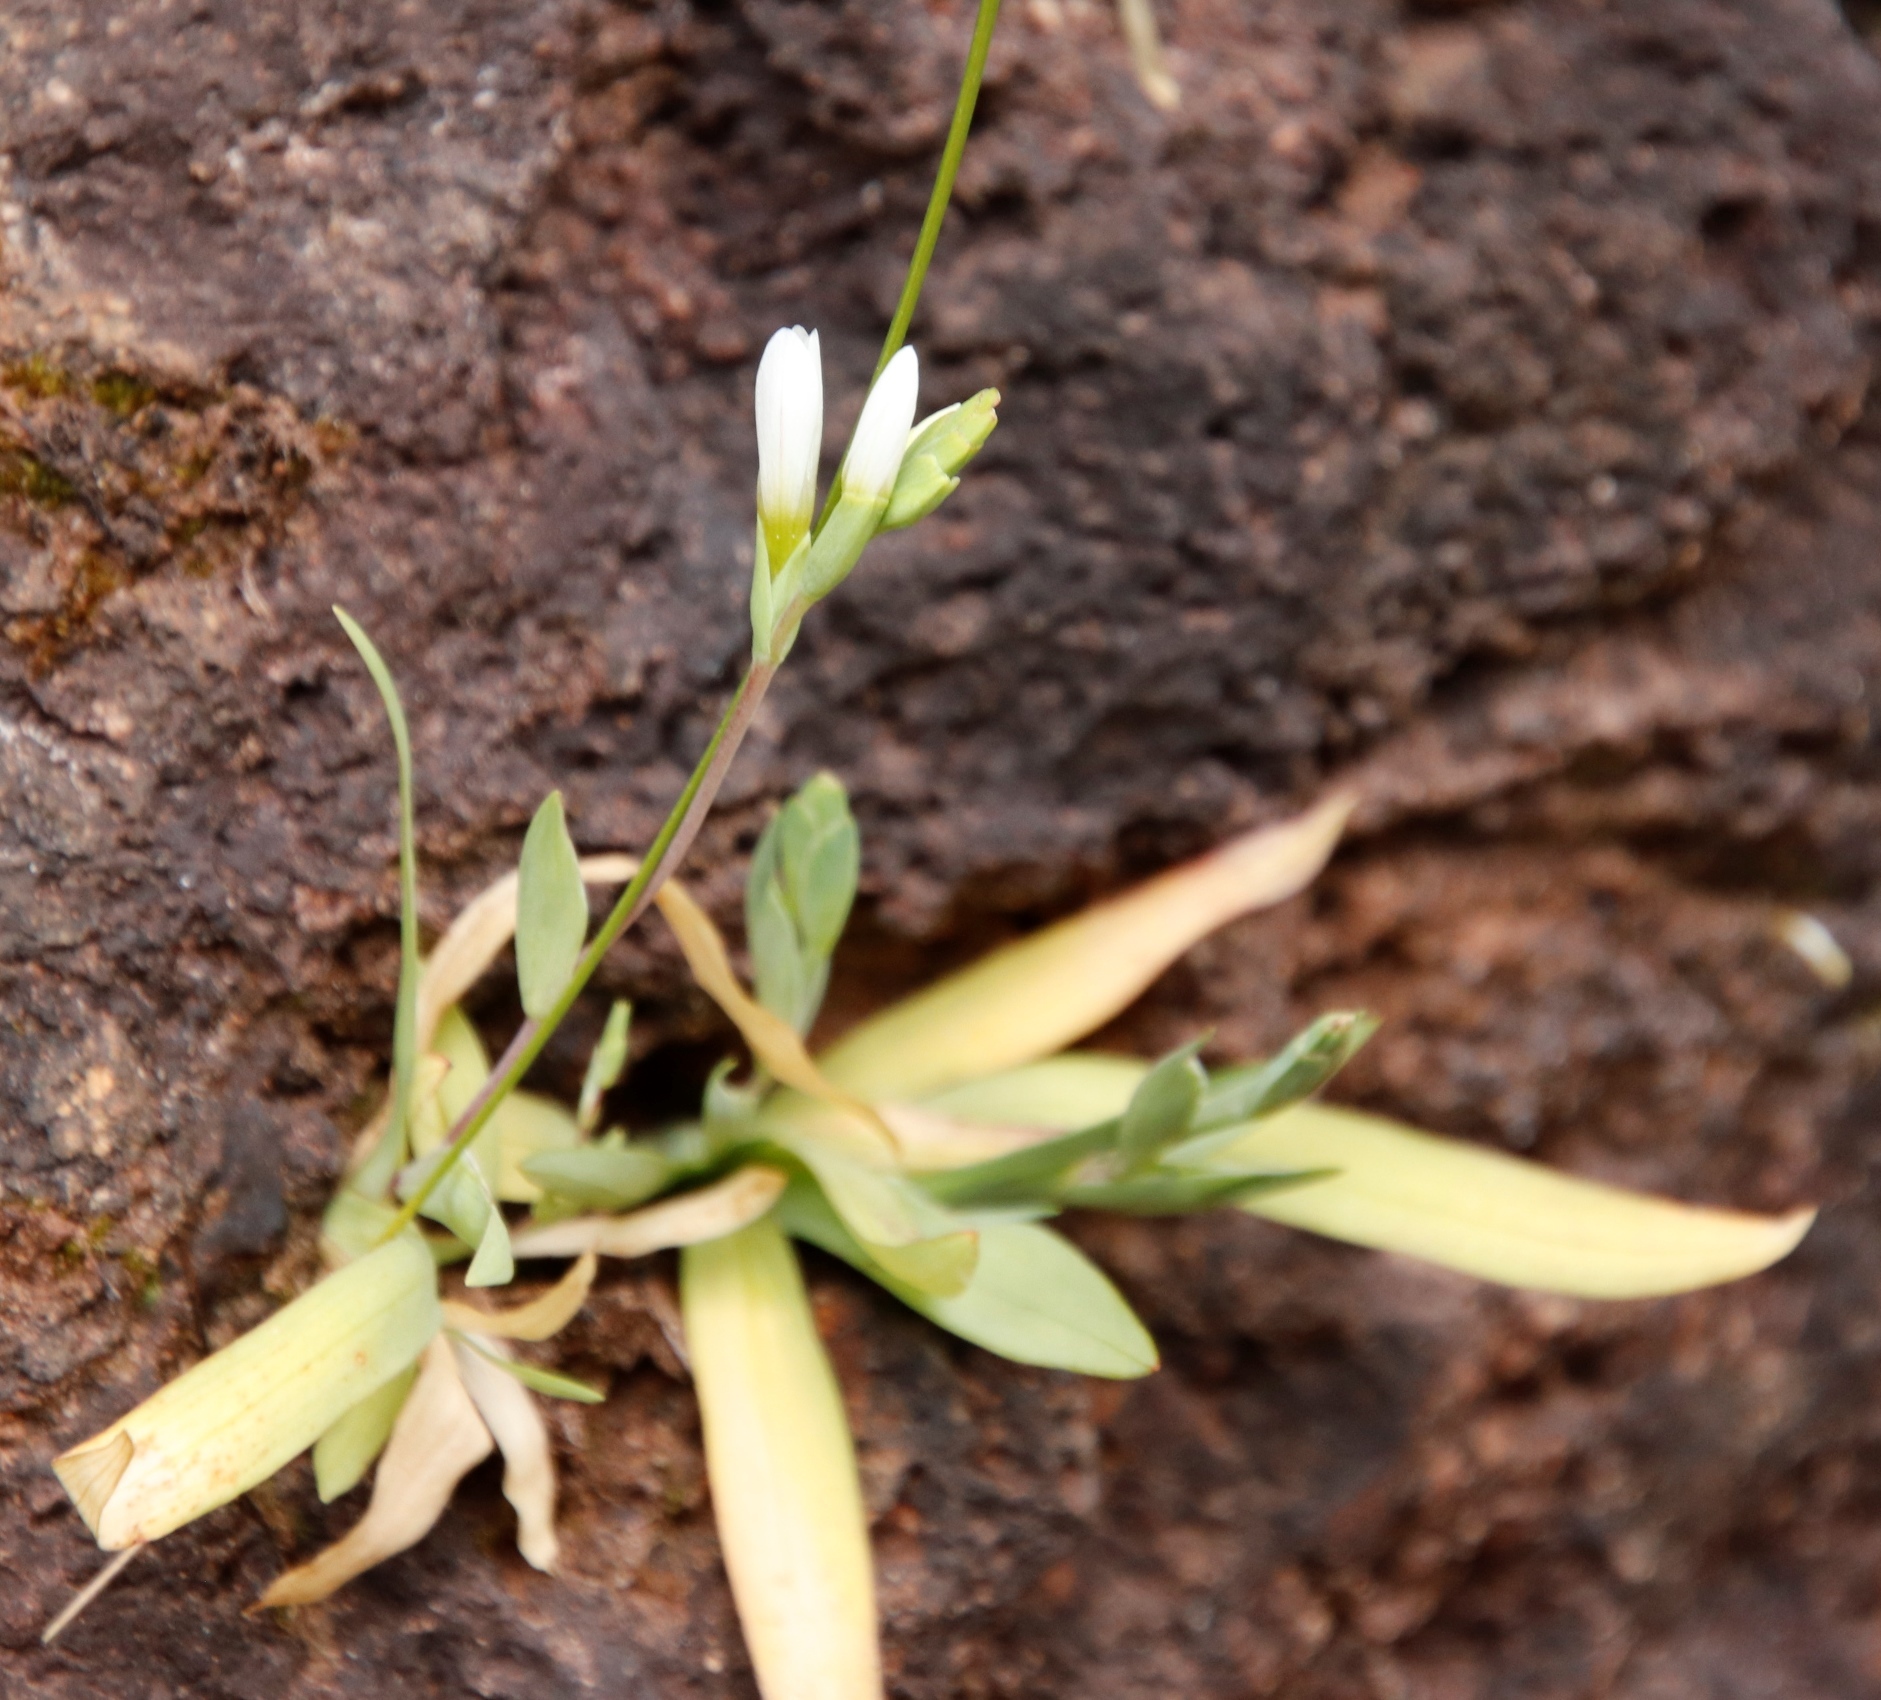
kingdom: Plantae
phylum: Tracheophyta
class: Liliopsida
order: Asparagales
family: Iridaceae
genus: Geissorhiza
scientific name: Geissorhiza bolusii
